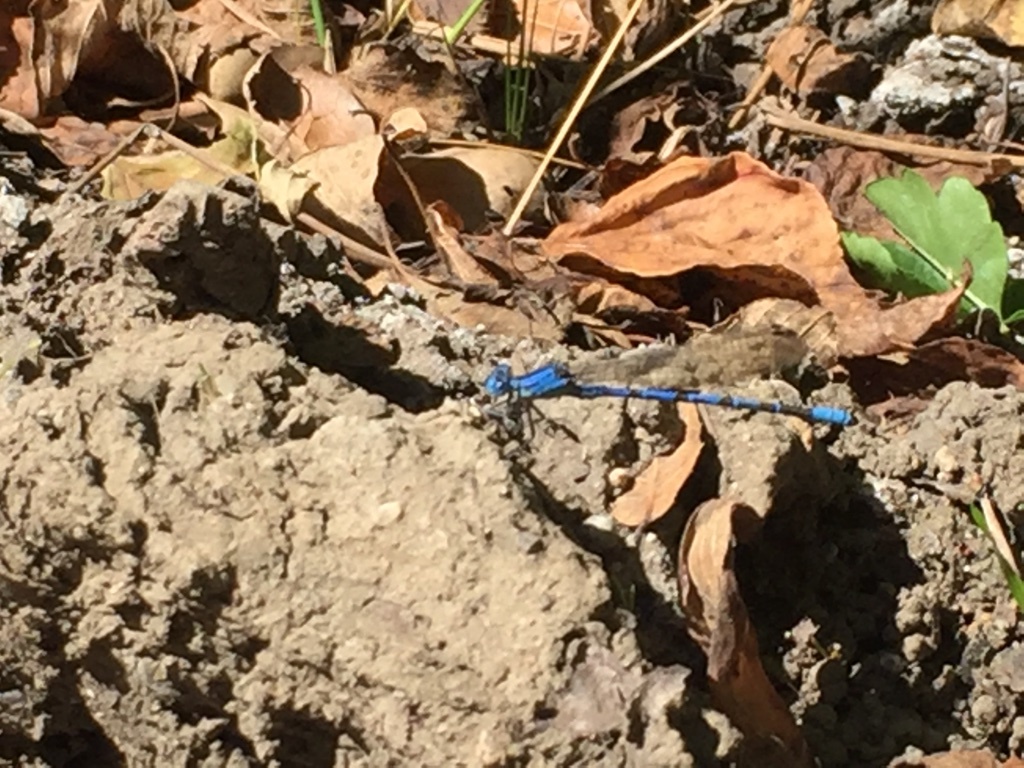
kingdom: Animalia
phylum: Arthropoda
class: Insecta
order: Odonata
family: Coenagrionidae
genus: Argia
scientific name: Argia vivida
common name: Vivid dancer
